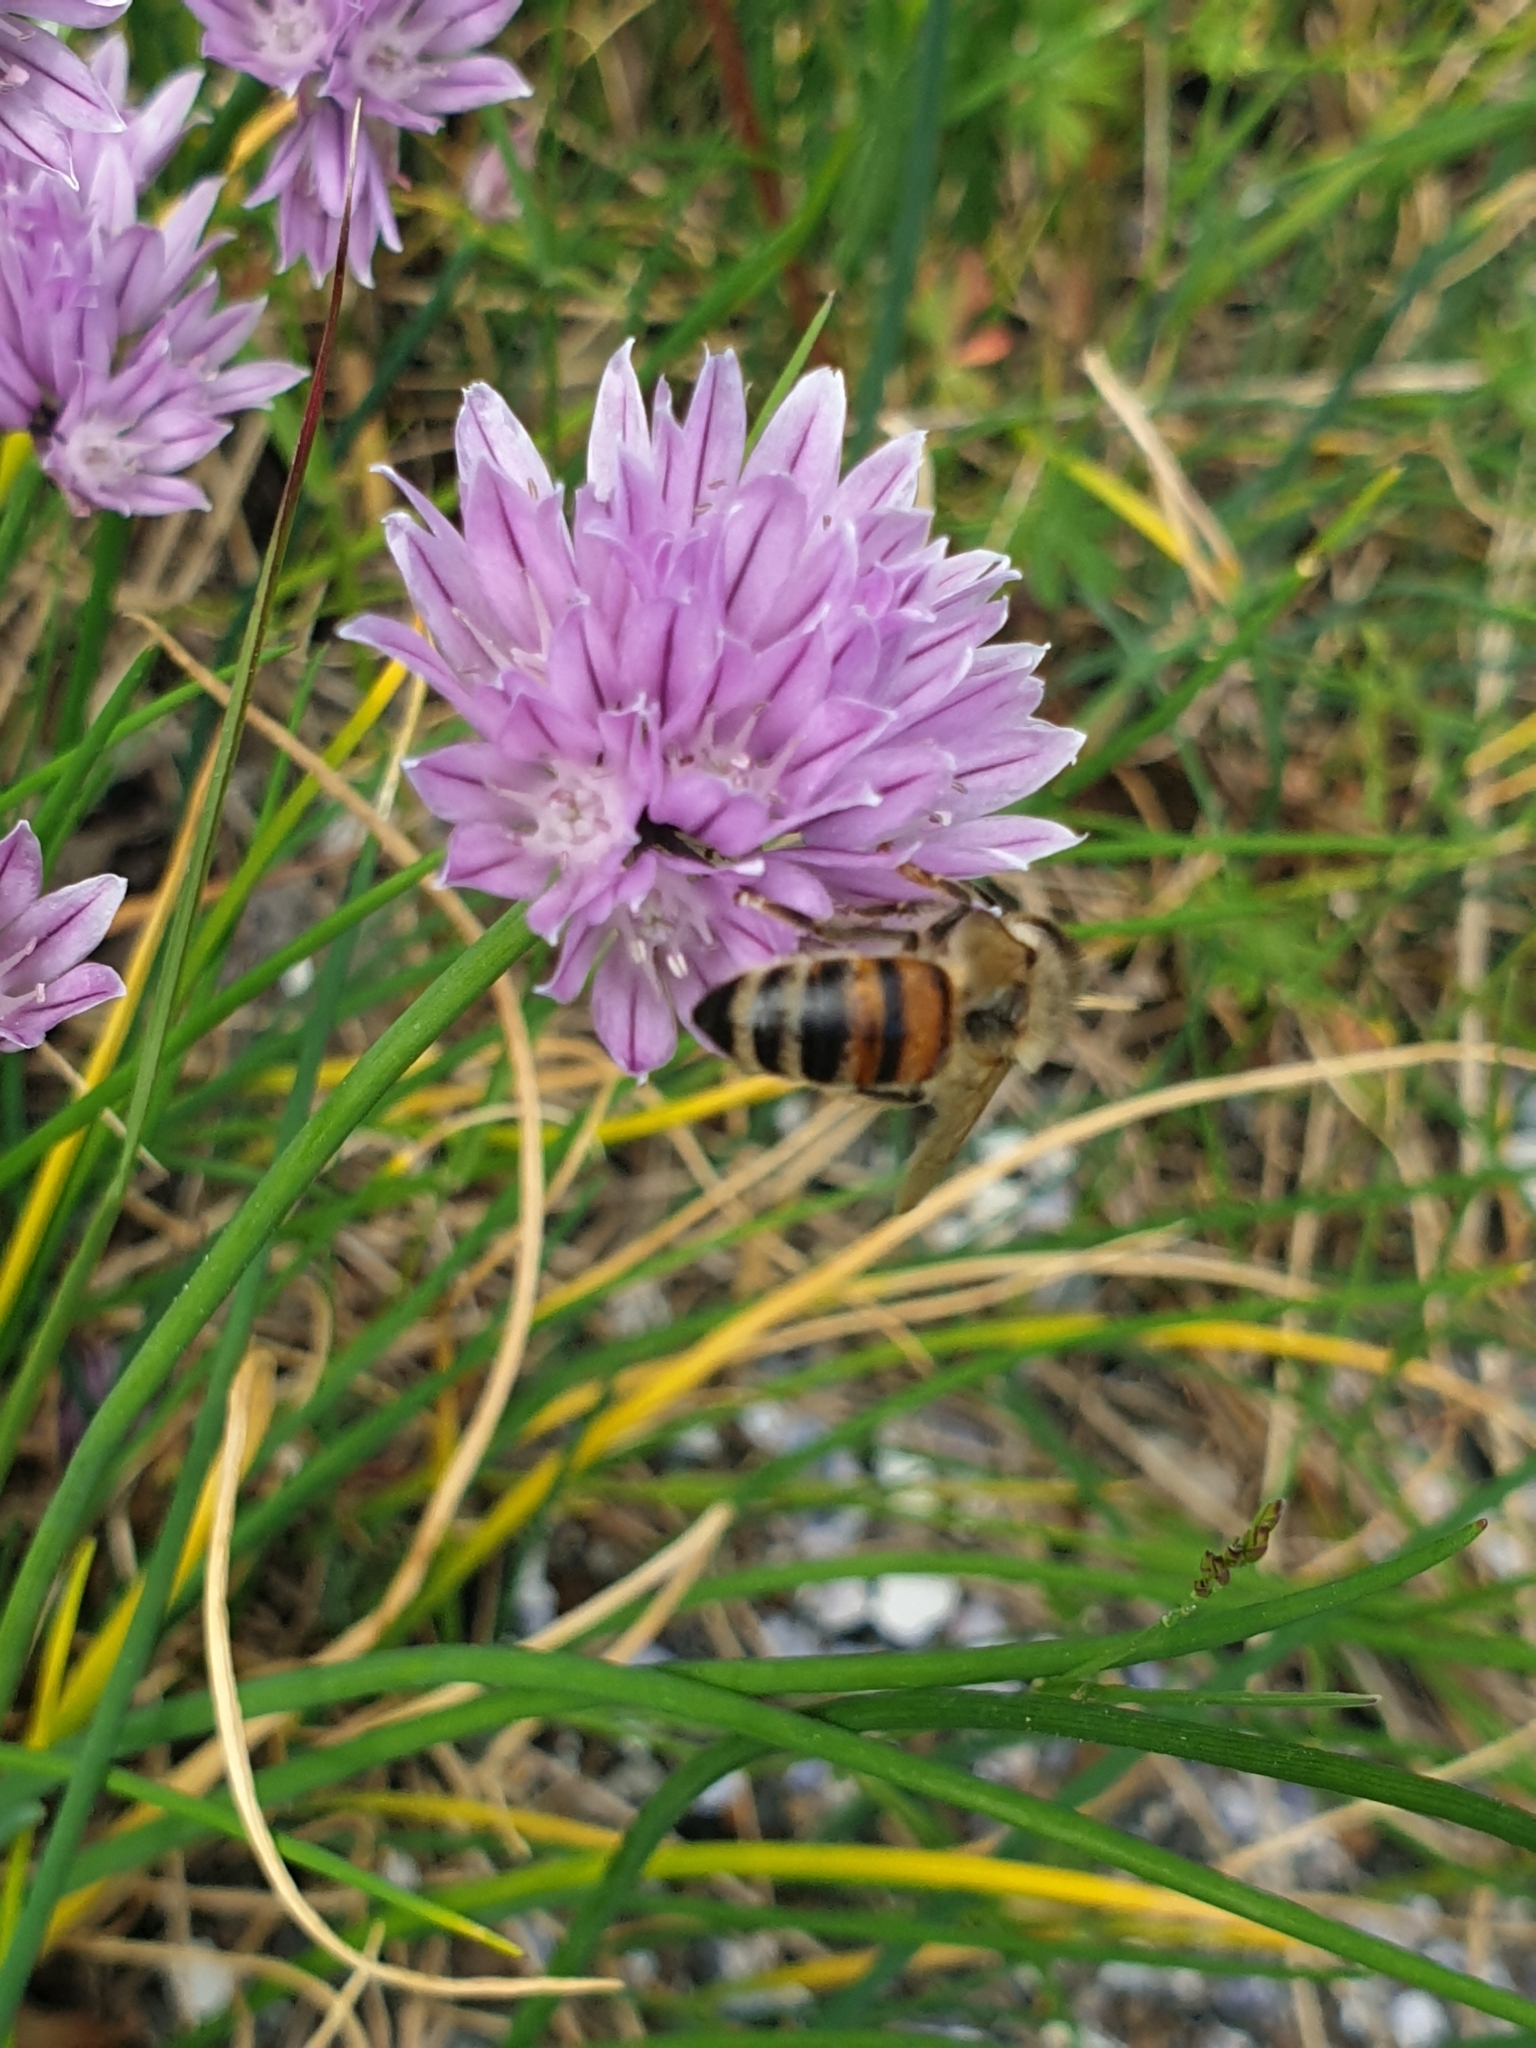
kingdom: Animalia
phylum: Arthropoda
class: Insecta
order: Hymenoptera
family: Apidae
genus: Apis
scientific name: Apis mellifera
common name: Honey bee
